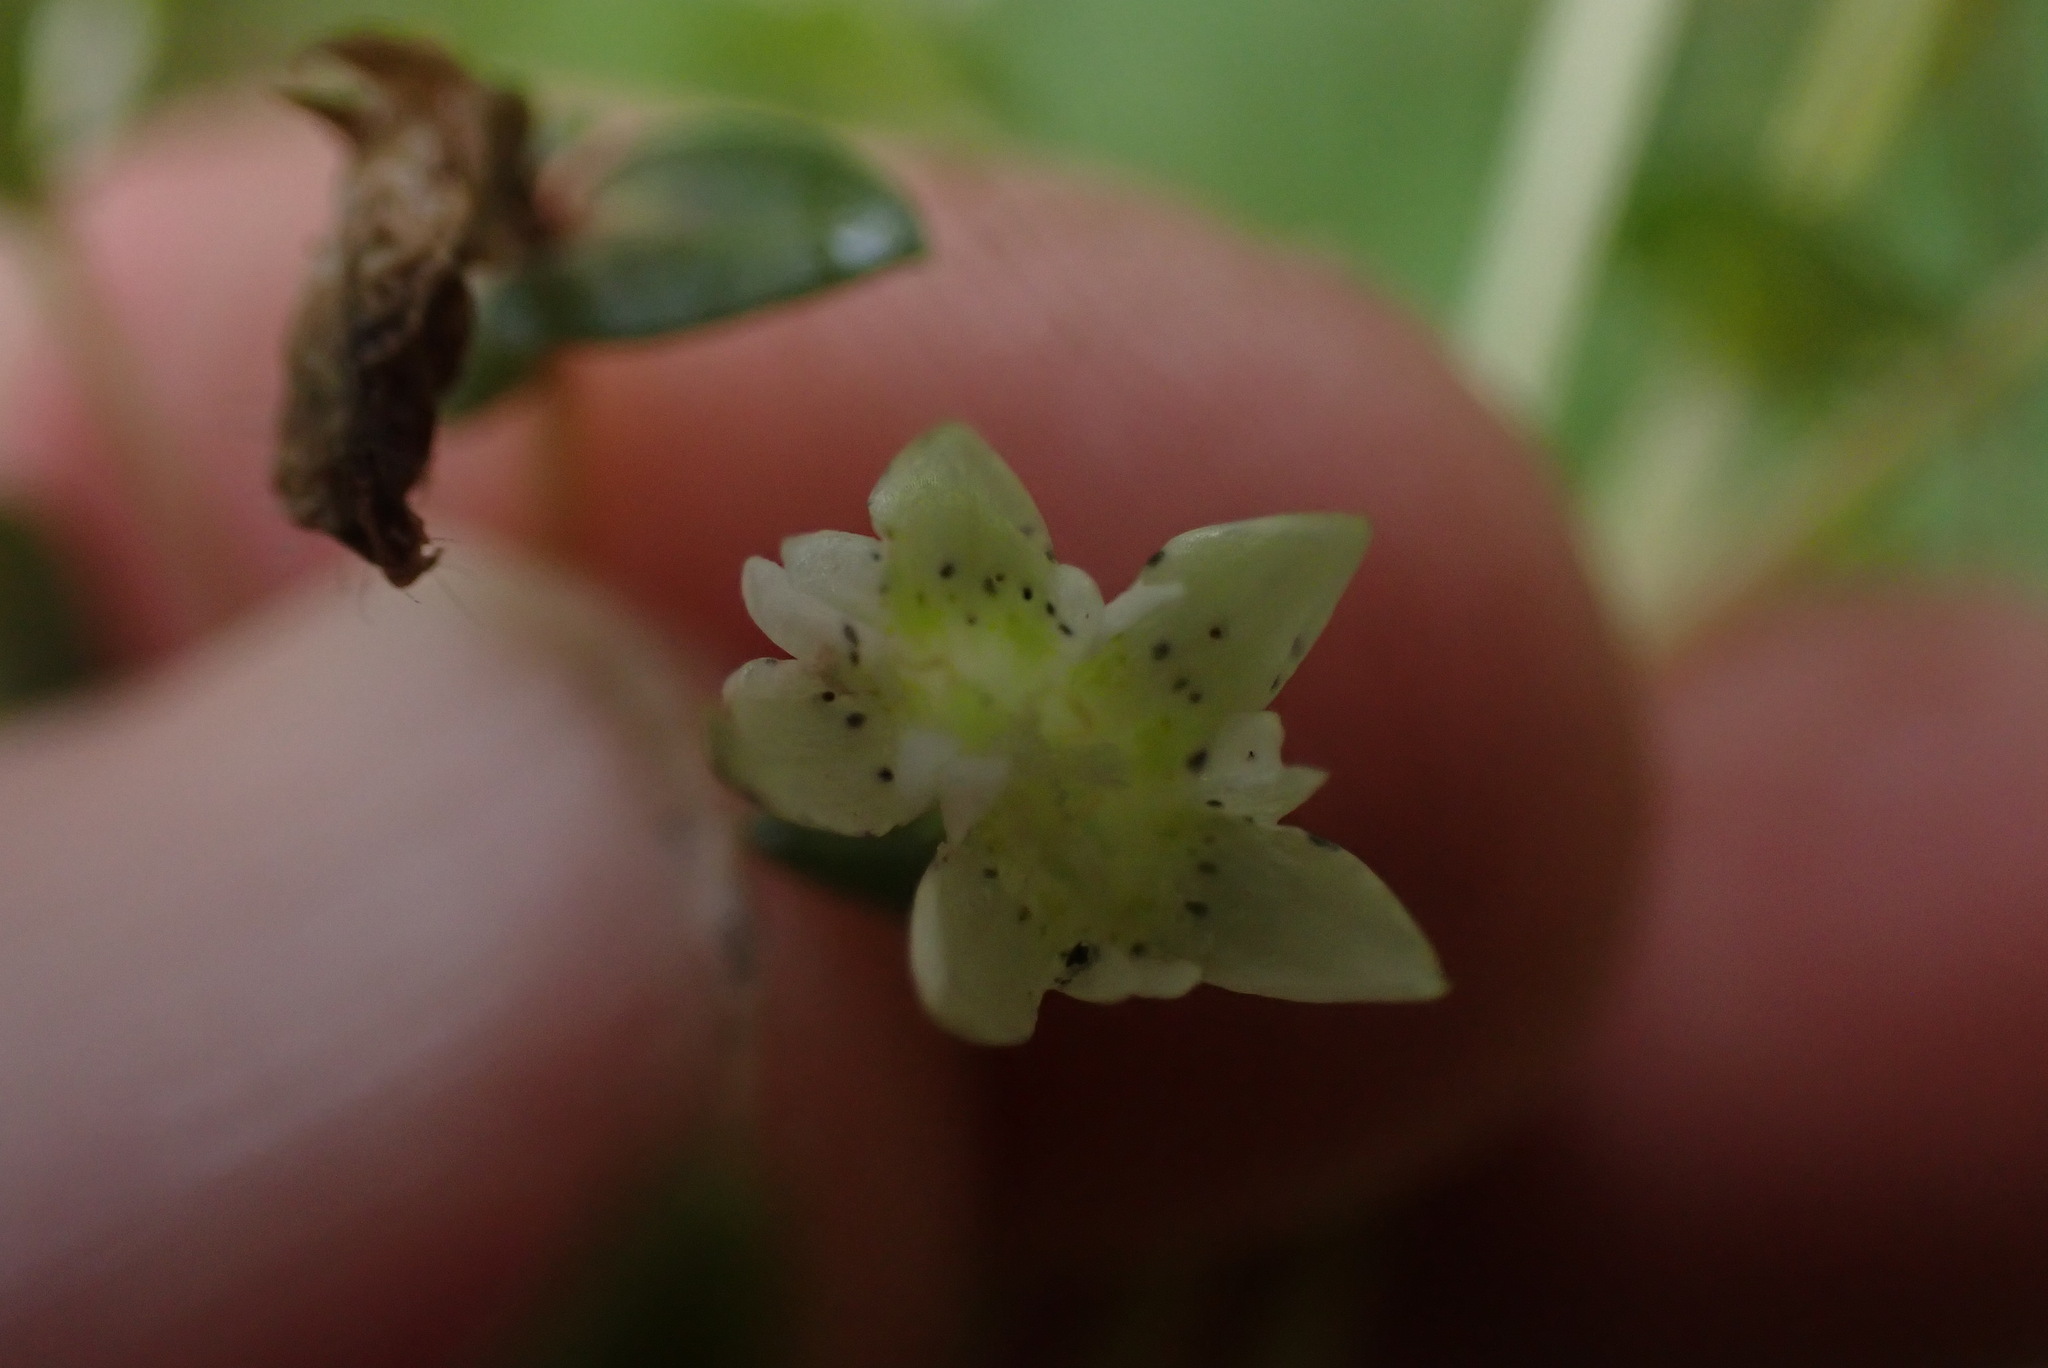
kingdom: Plantae
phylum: Tracheophyta
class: Magnoliopsida
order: Gentianales
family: Gentianaceae
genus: Gentiana
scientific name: Gentiana douglasiana
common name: Swamp gentian
